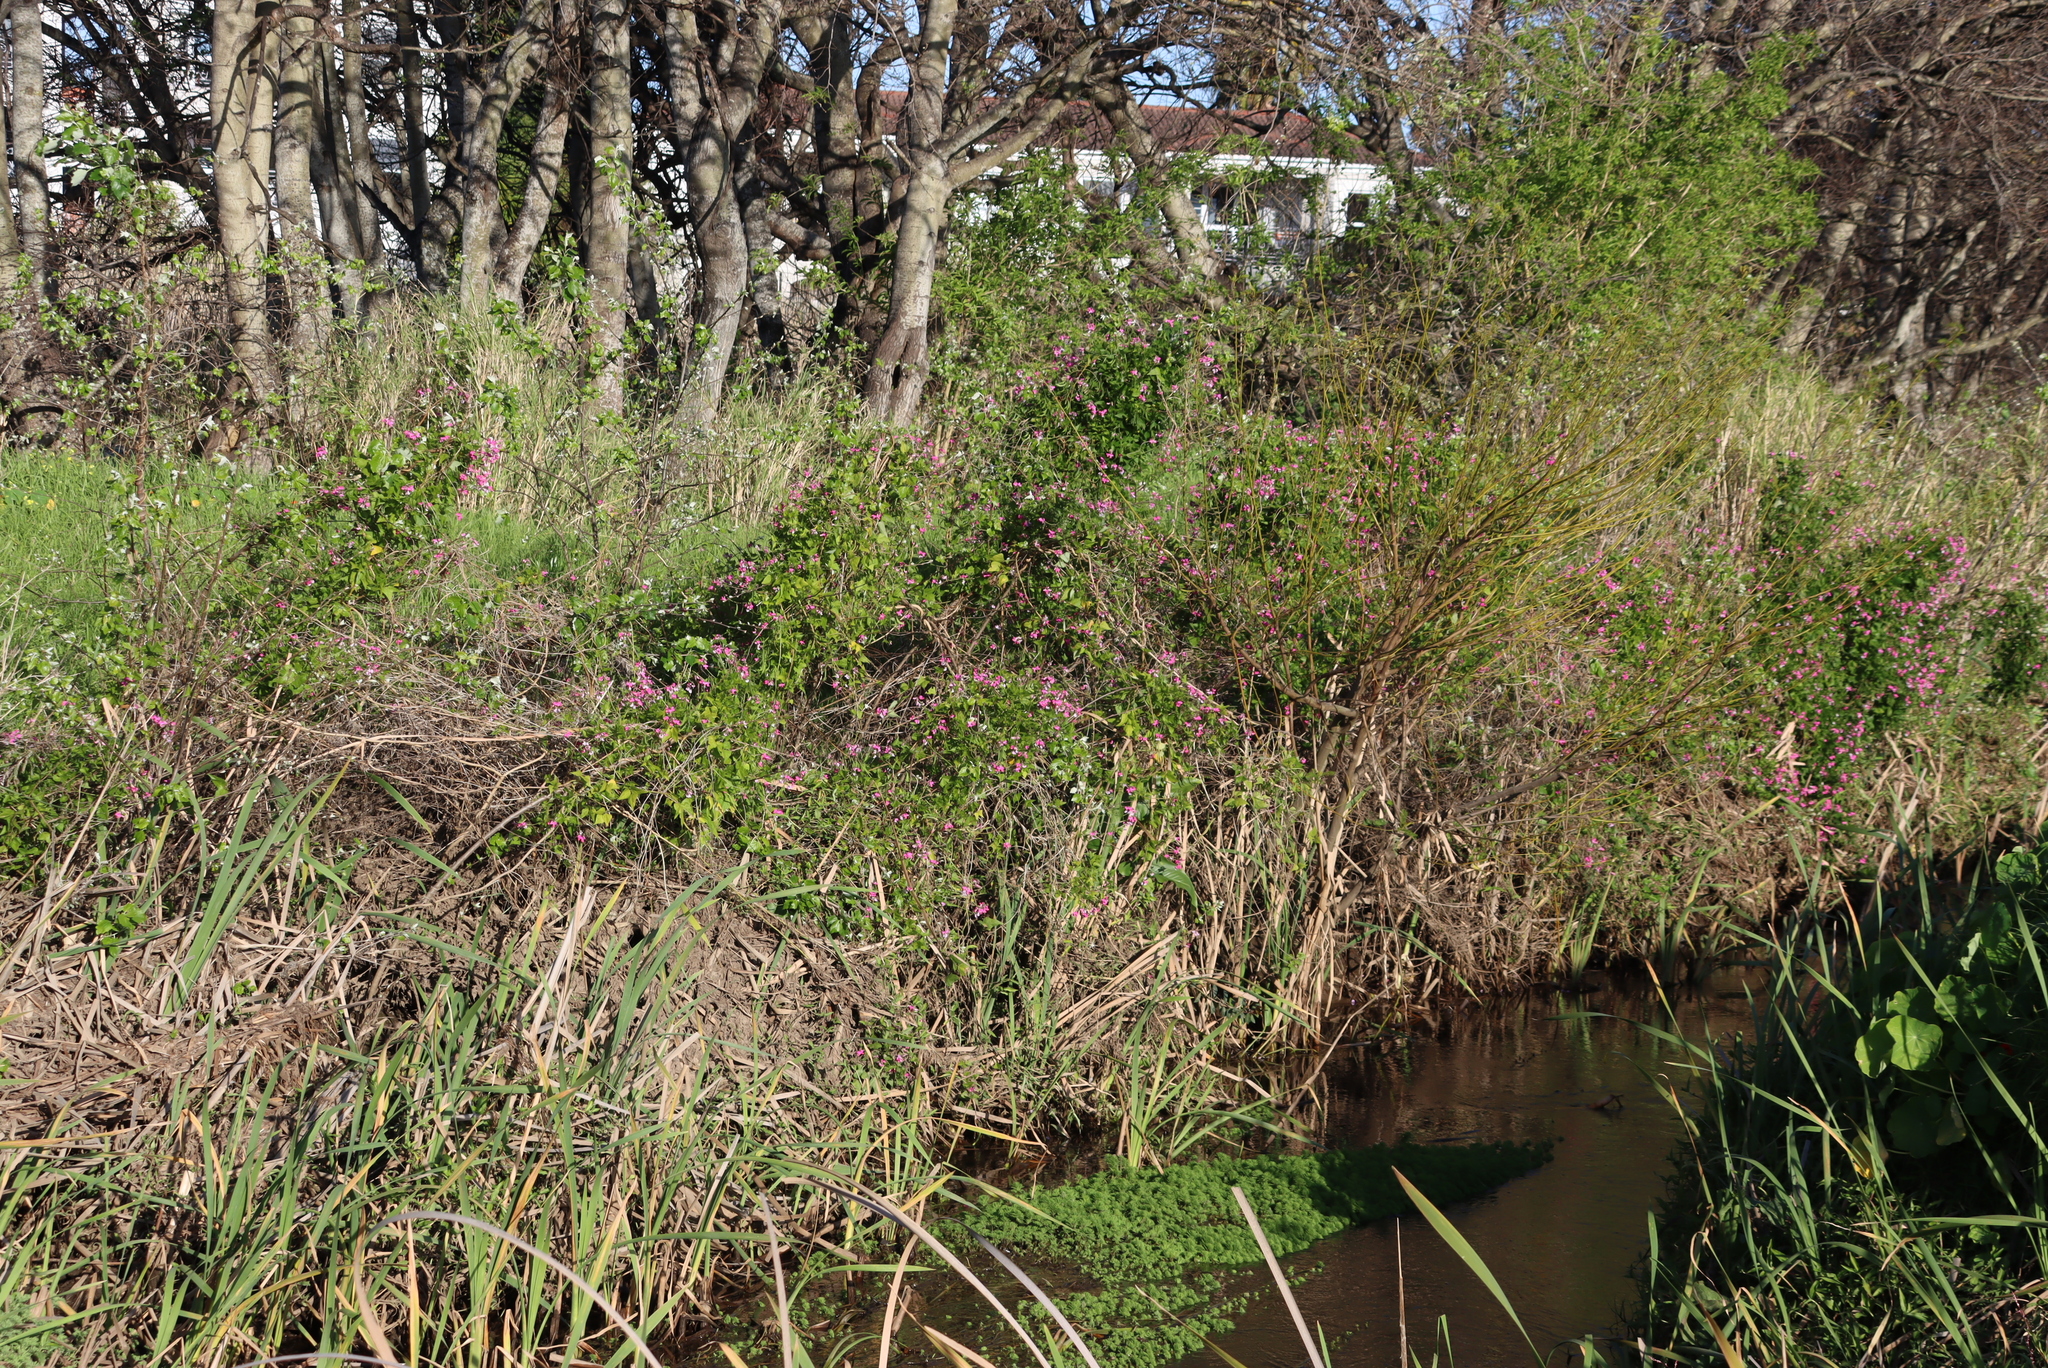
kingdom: Plantae
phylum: Tracheophyta
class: Magnoliopsida
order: Fabales
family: Fabaceae
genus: Dipogon
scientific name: Dipogon lignosus
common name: Okie bean
